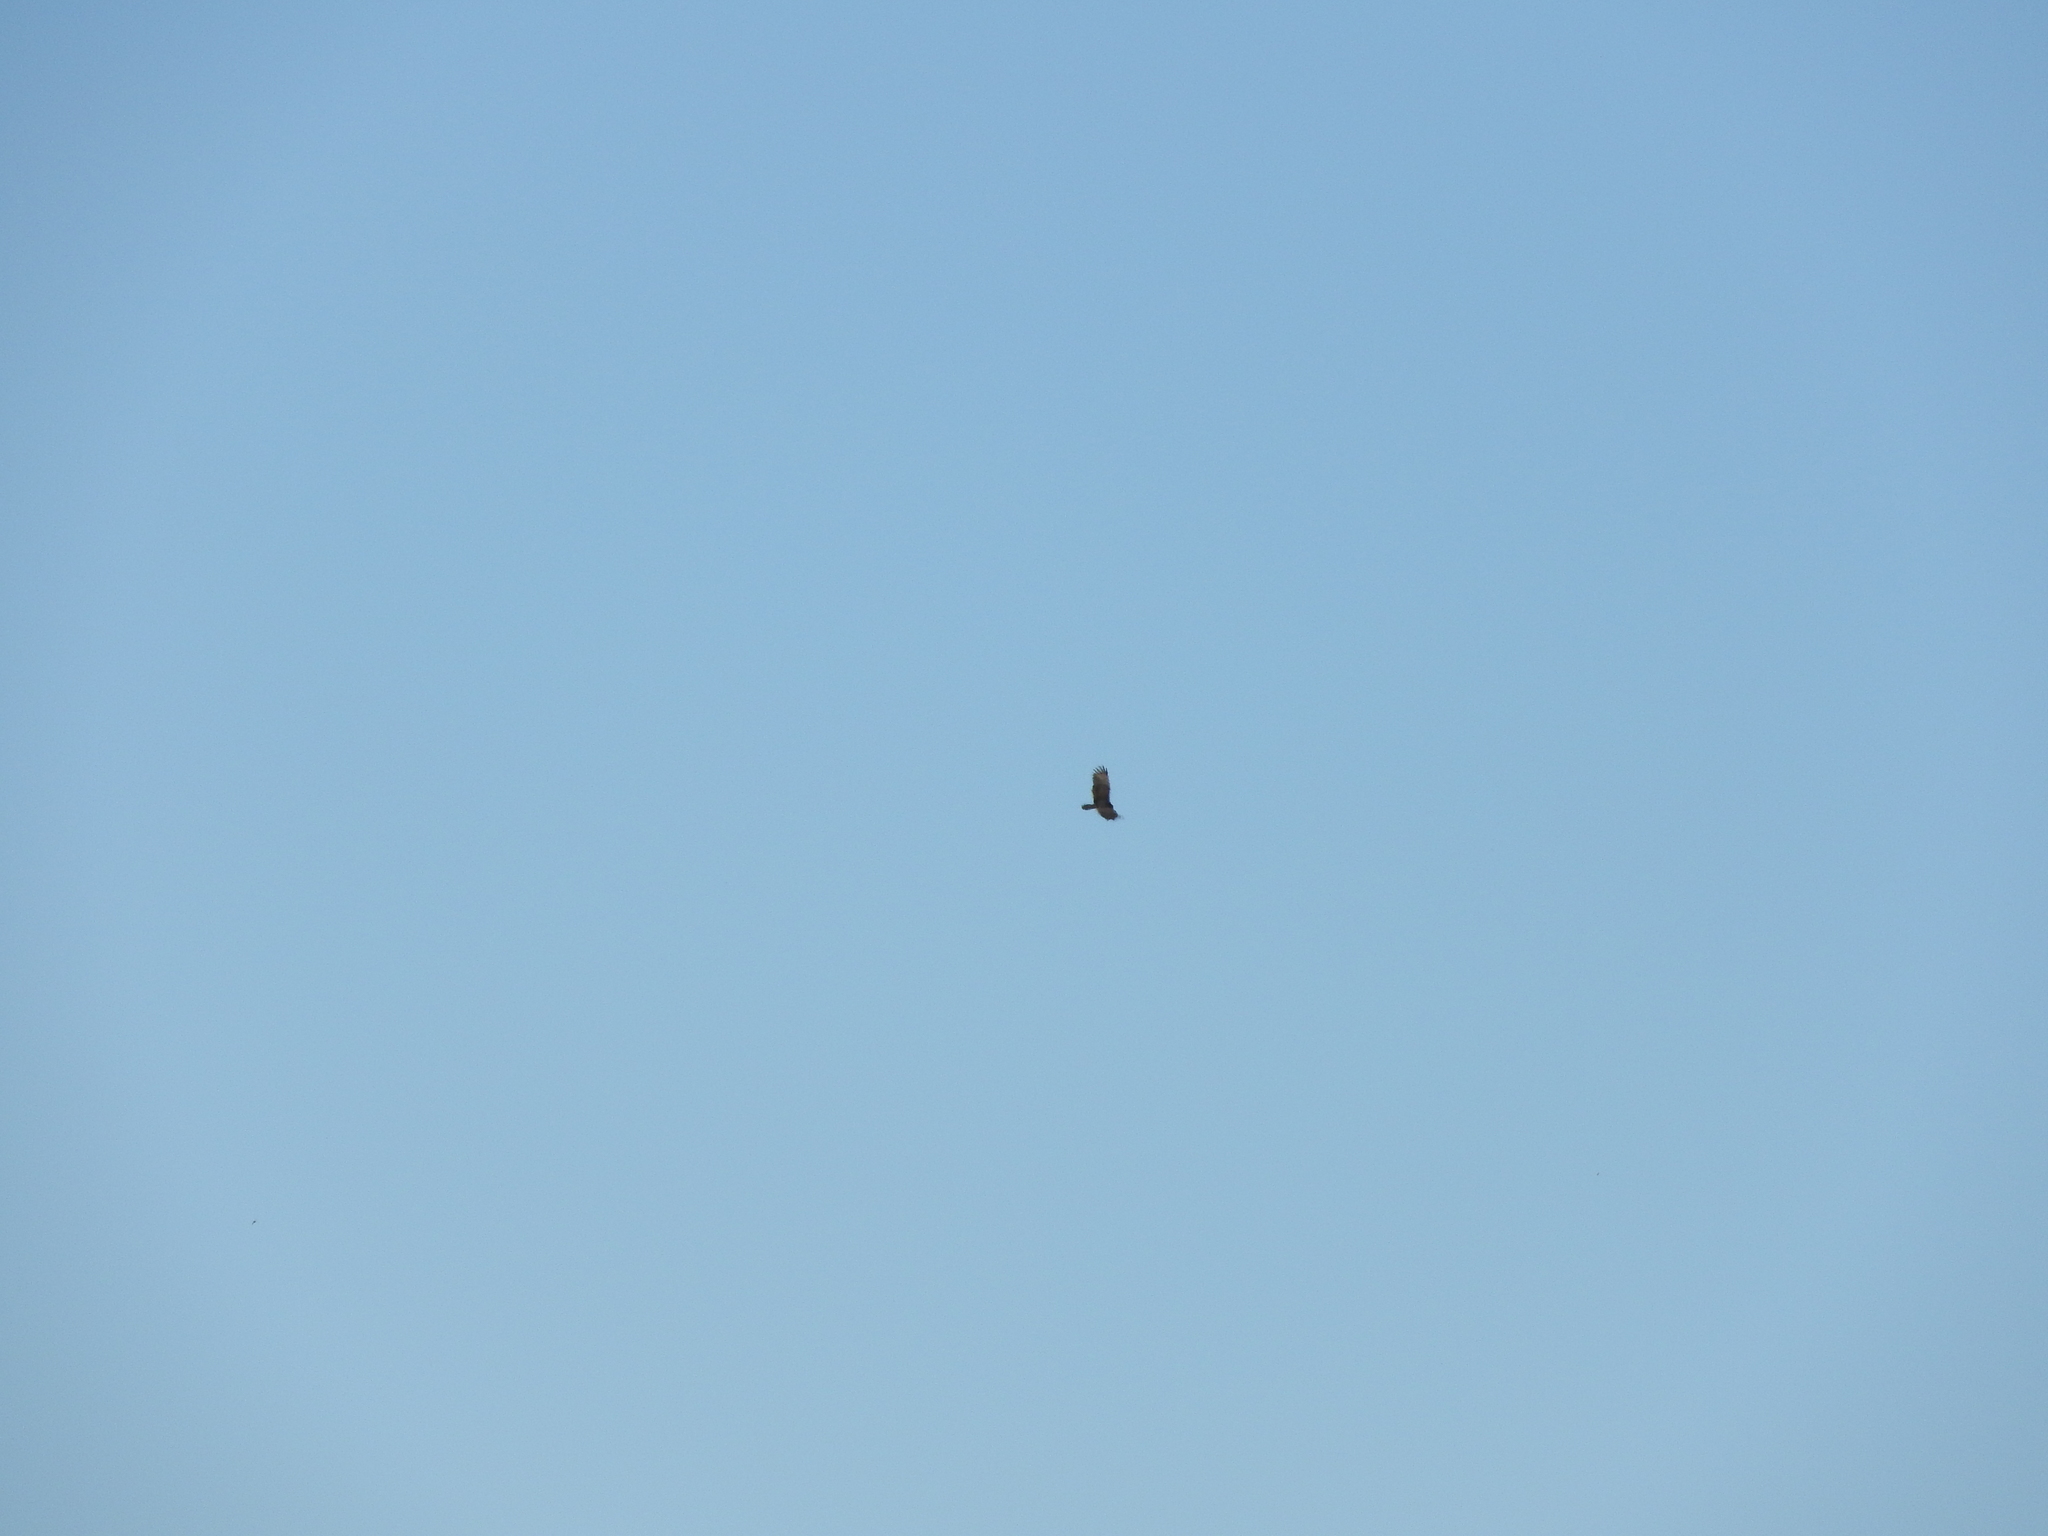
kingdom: Animalia
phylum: Chordata
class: Aves
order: Accipitriformes
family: Cathartidae
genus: Cathartes
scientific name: Cathartes aura
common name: Turkey vulture
